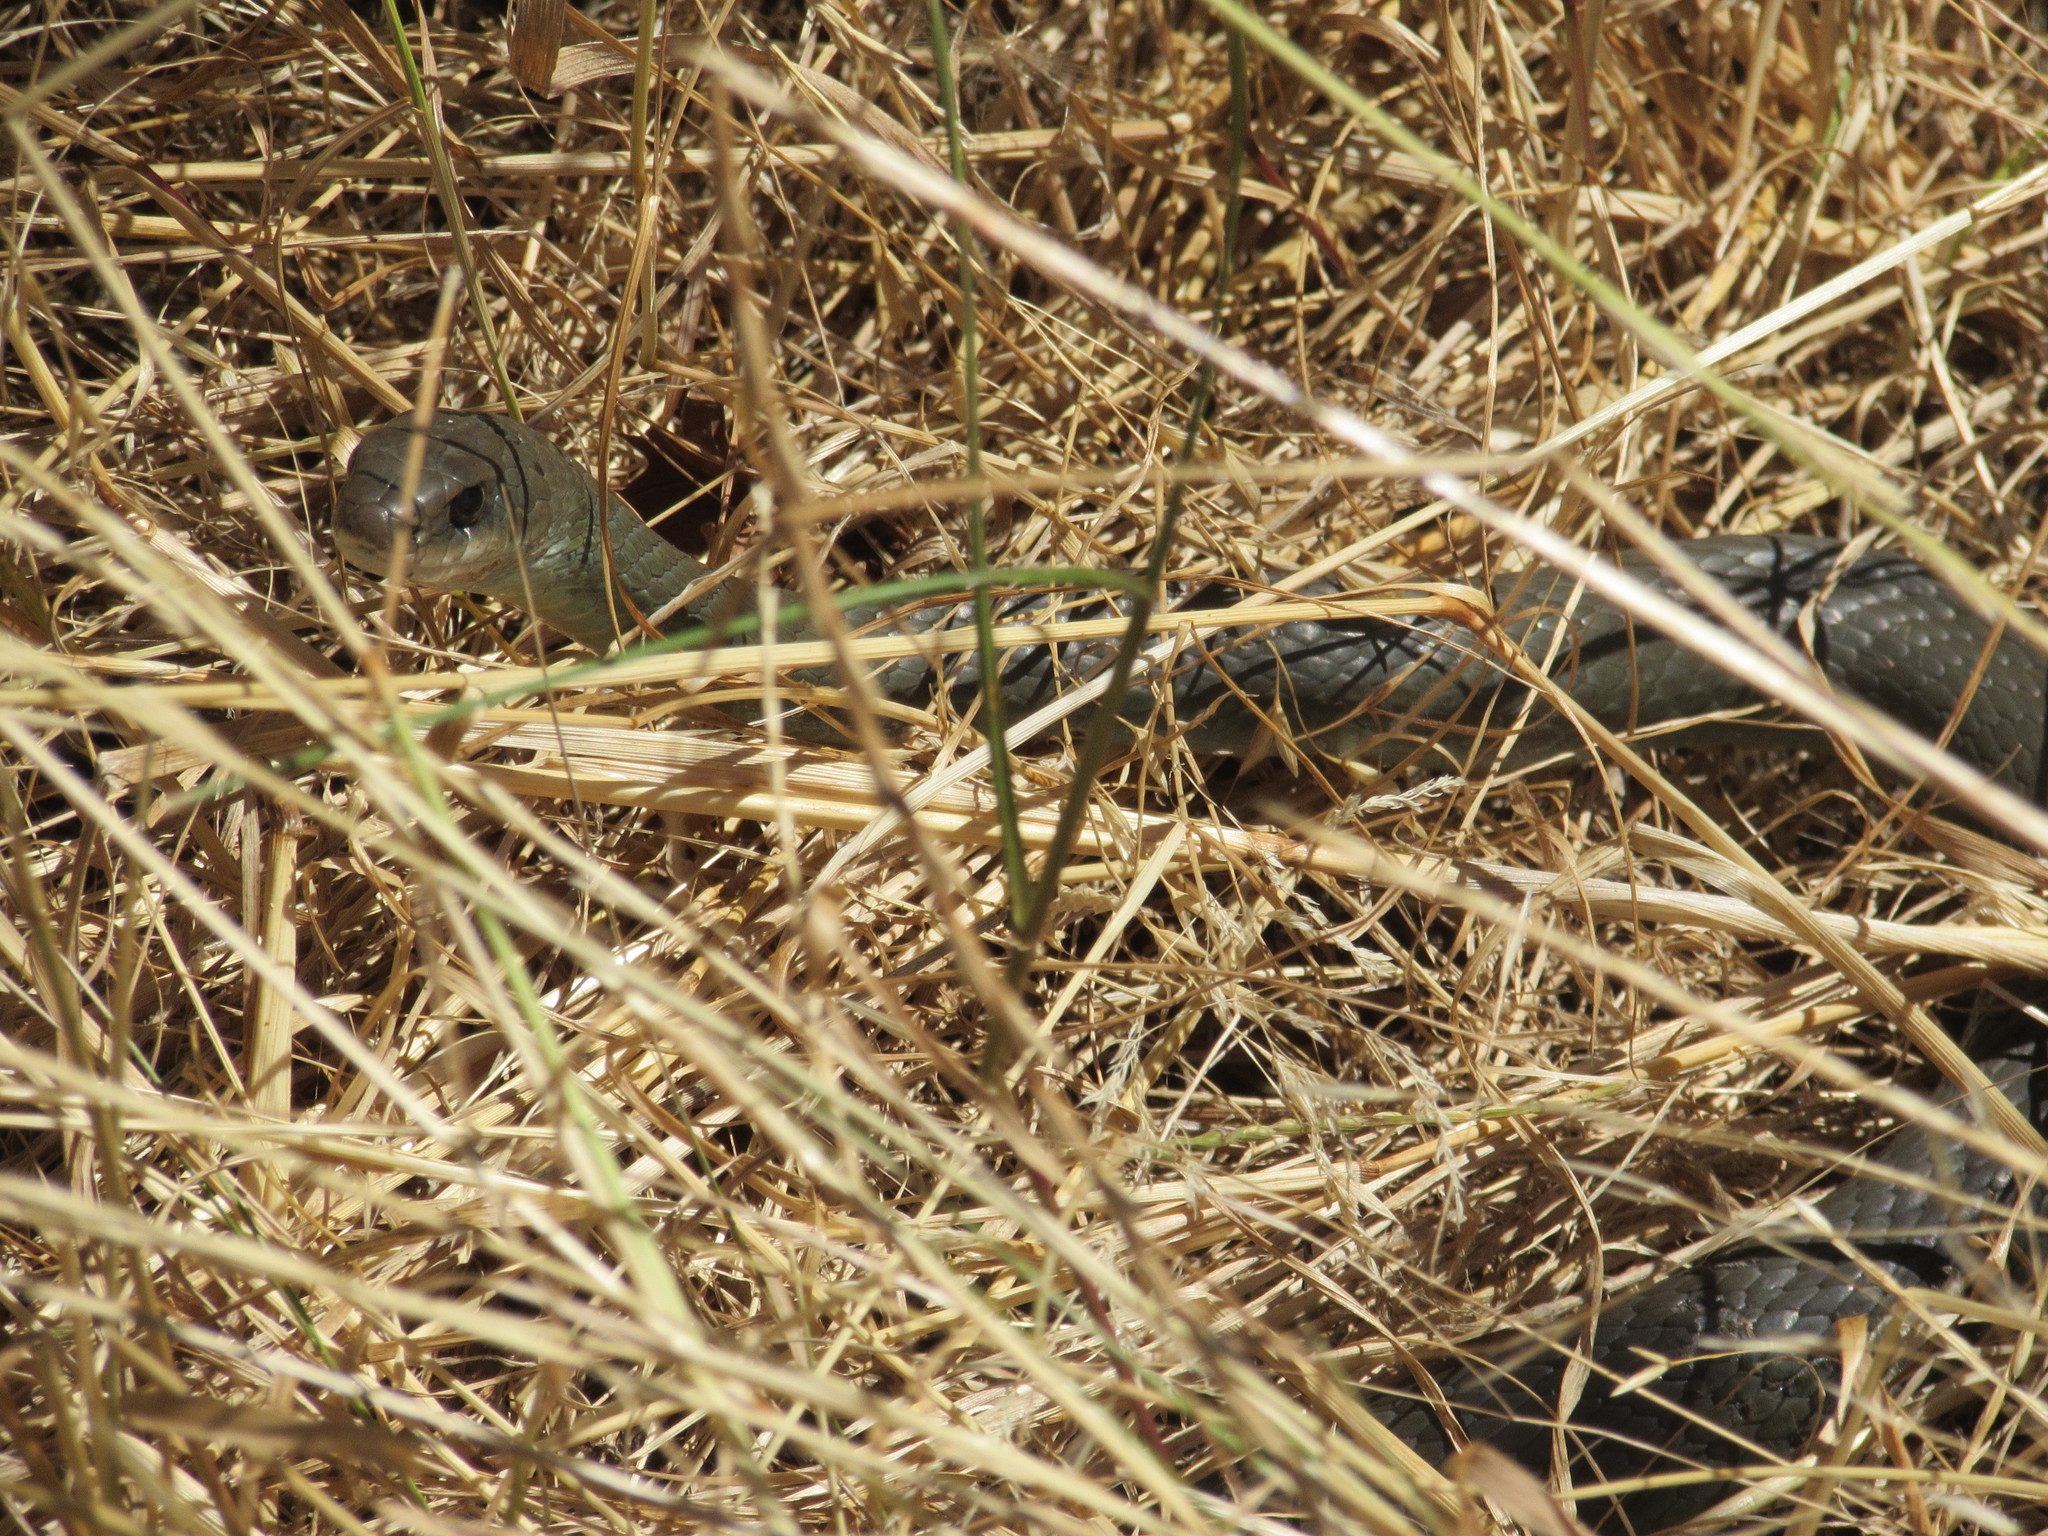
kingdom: Animalia
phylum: Chordata
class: Squamata
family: Colubridae
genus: Coluber
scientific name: Coluber constrictor
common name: Eastern racer
